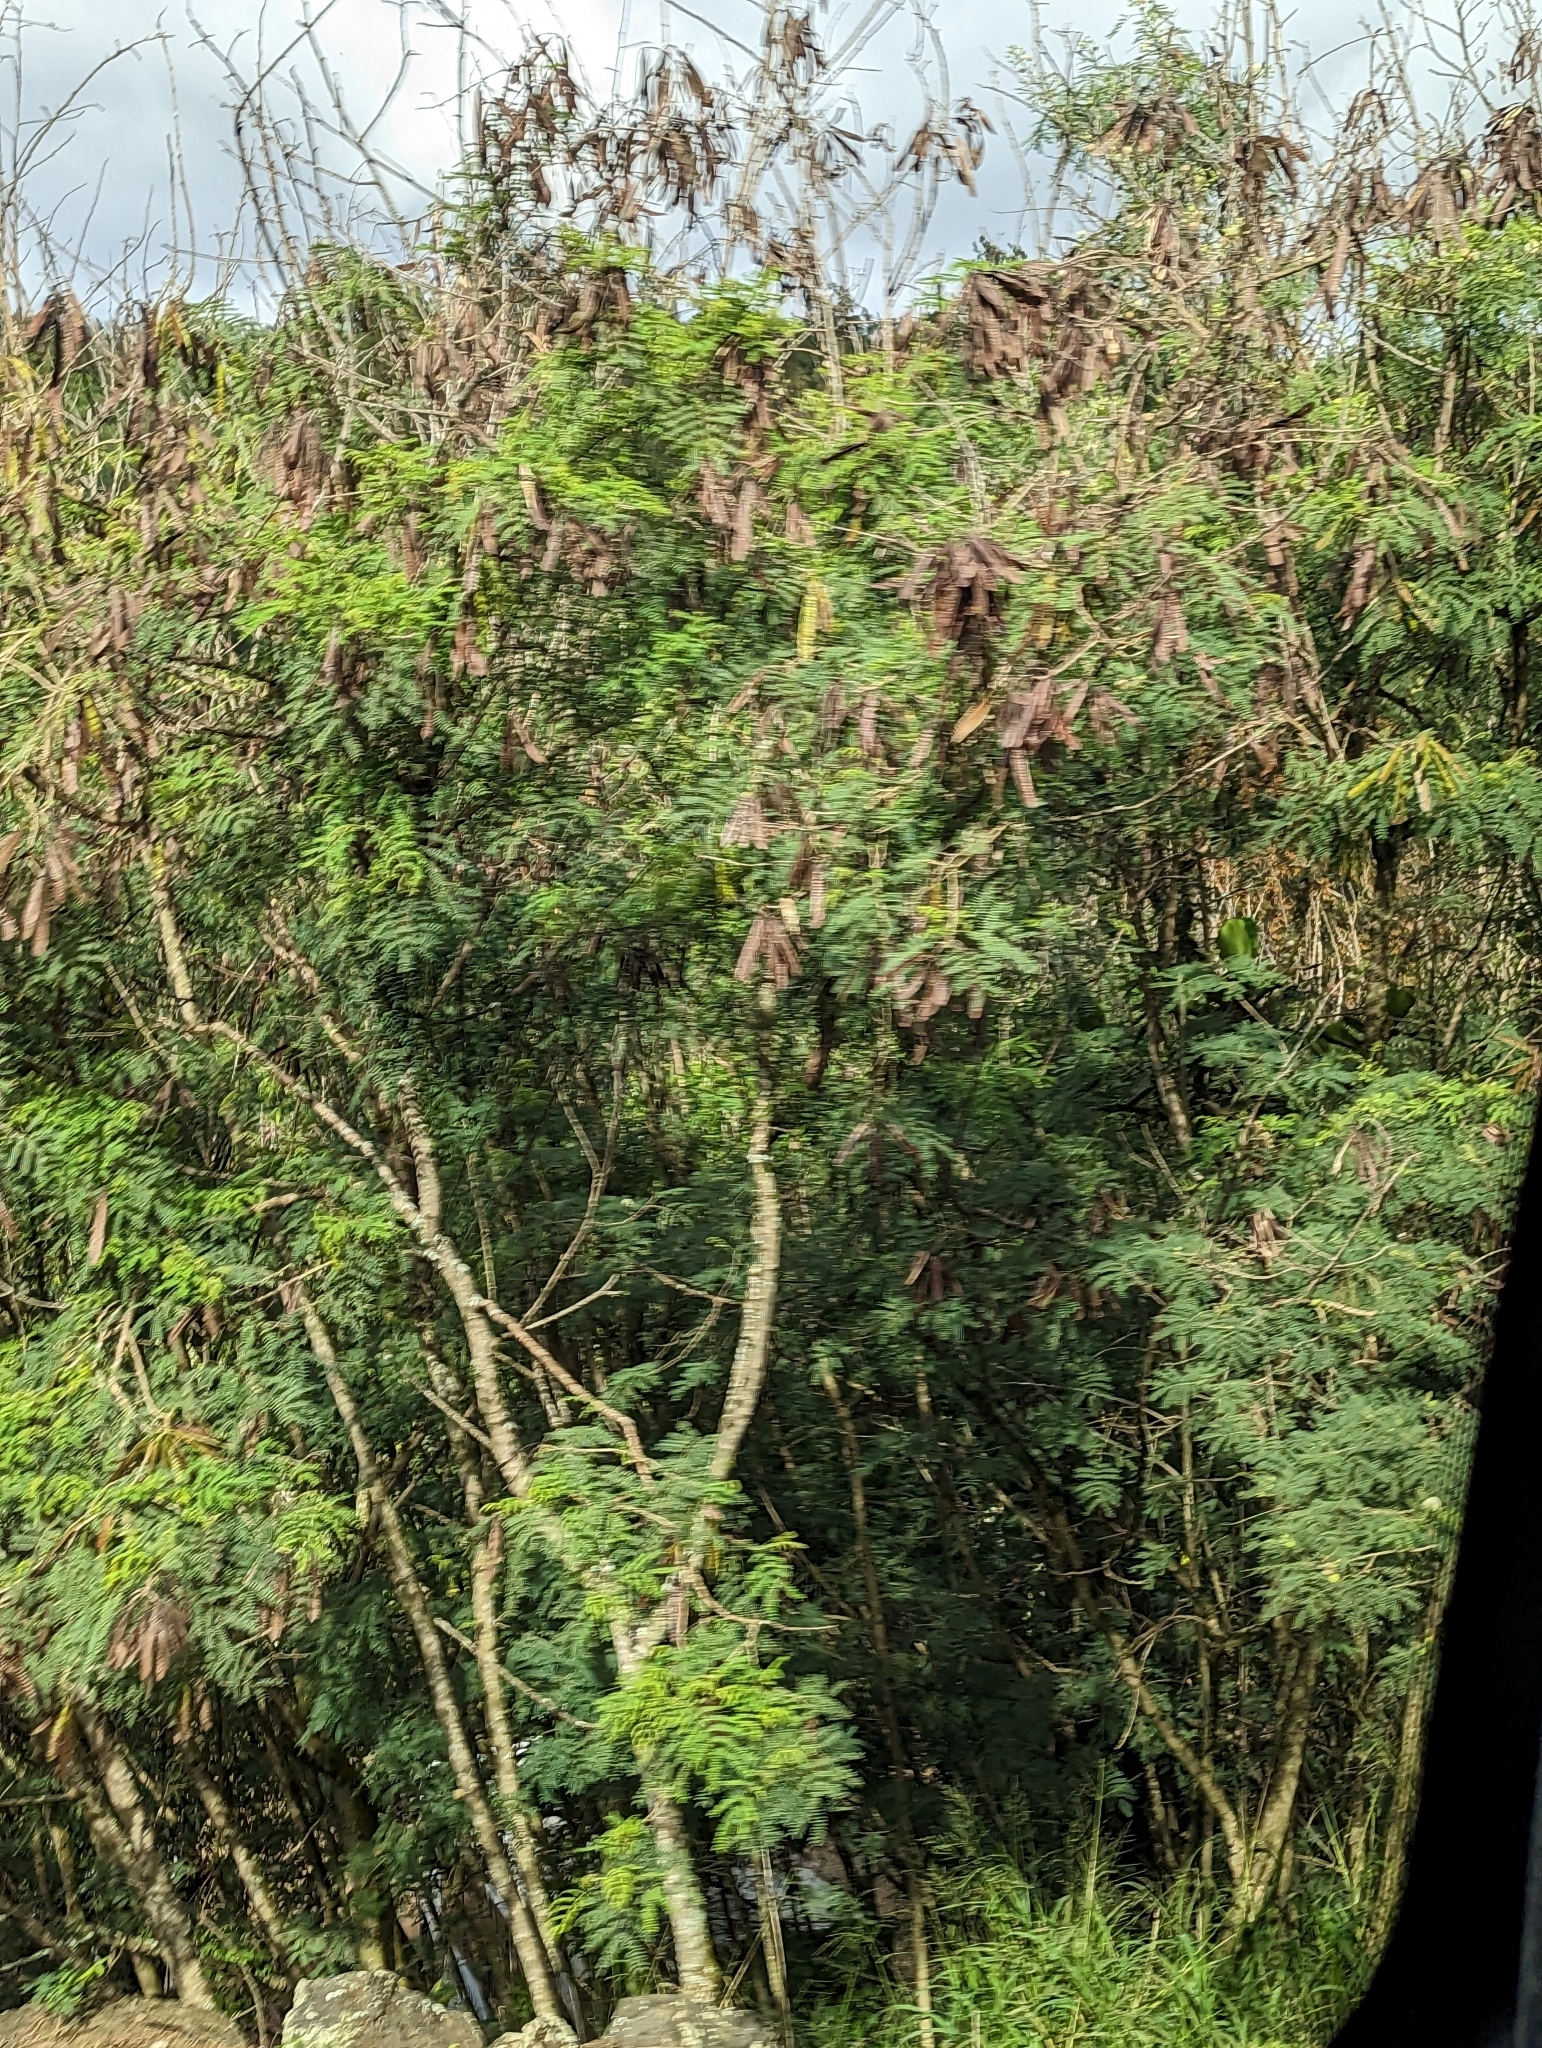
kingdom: Plantae
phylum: Tracheophyta
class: Magnoliopsida
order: Fabales
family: Fabaceae
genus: Leucaena
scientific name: Leucaena leucocephala
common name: White leadtree
